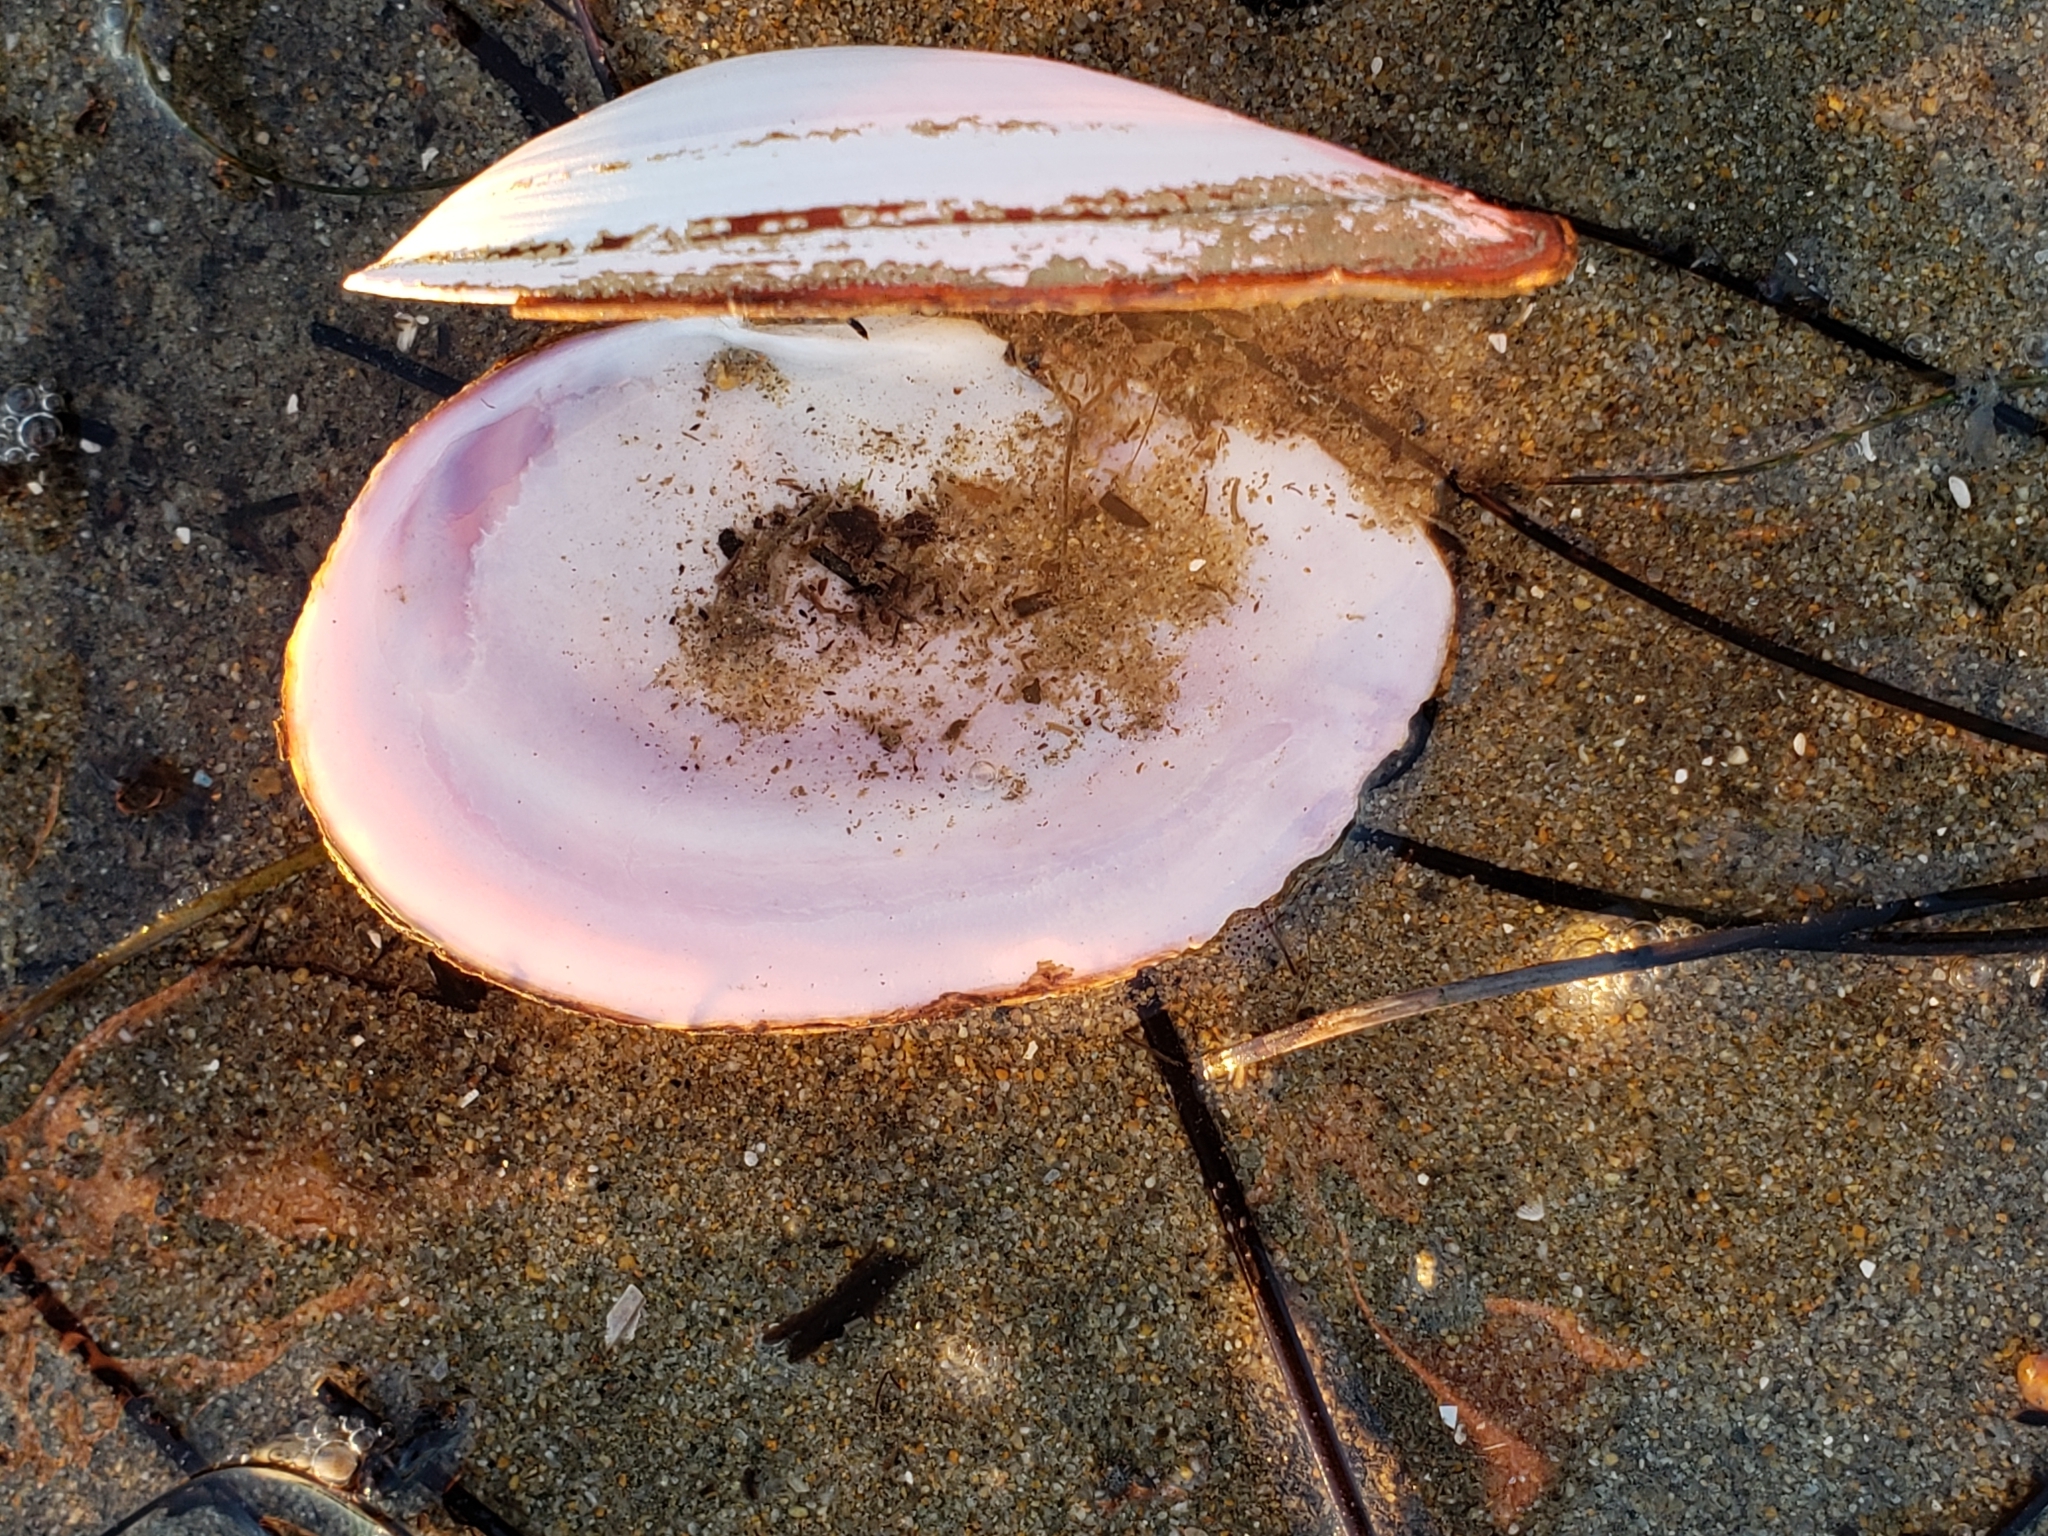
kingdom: Animalia
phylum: Mollusca
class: Bivalvia
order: Cardiida
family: Psammobiidae
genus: Nuttallia
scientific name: Nuttallia nuttallii
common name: California mahogany-clam
